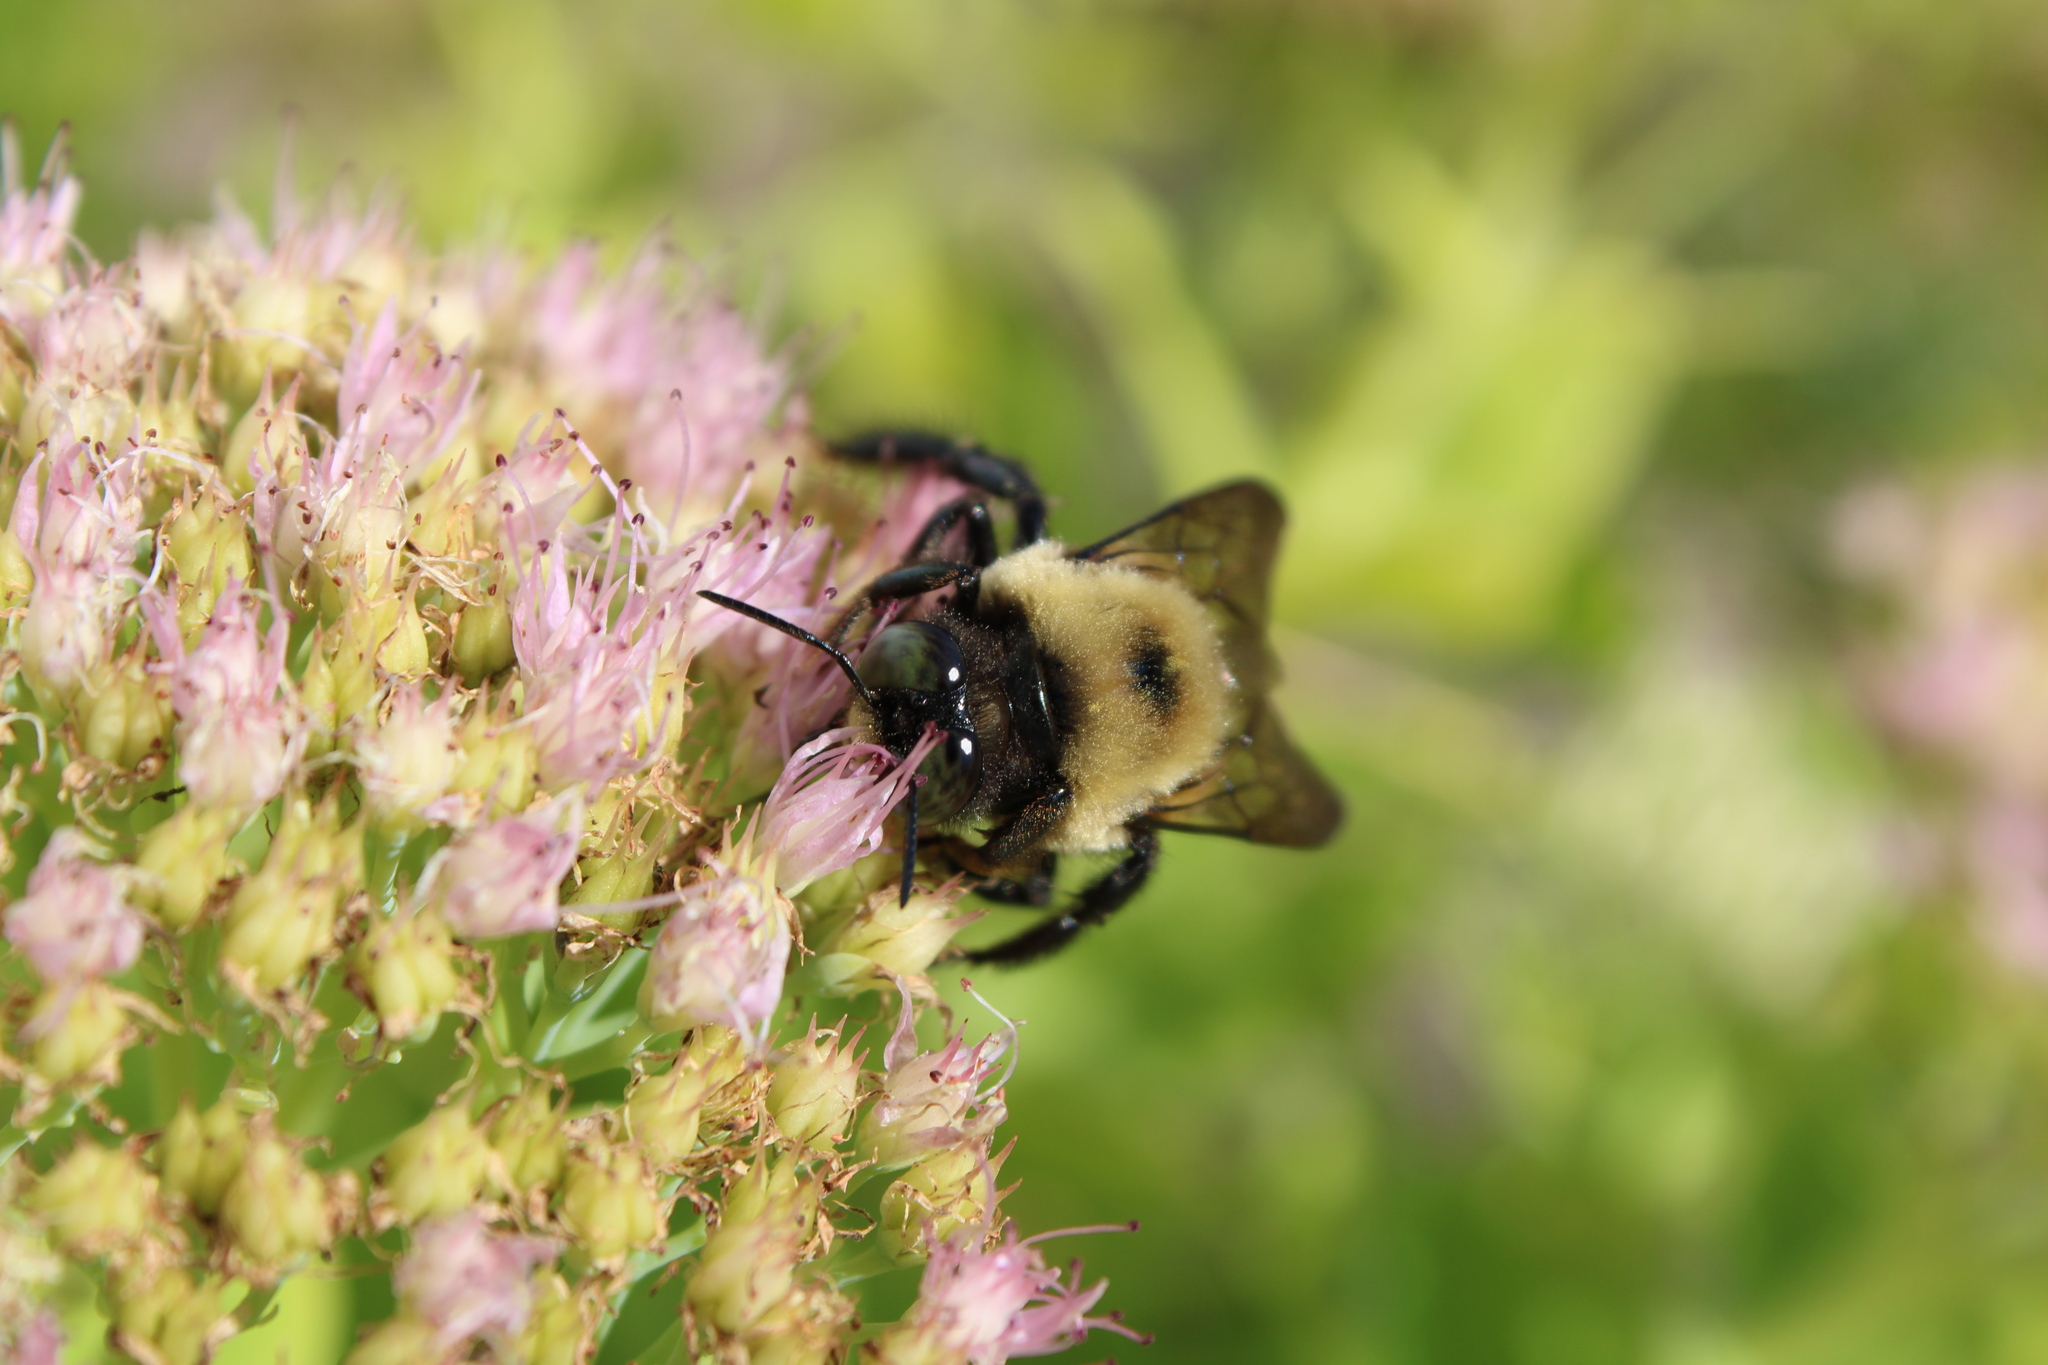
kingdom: Animalia
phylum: Arthropoda
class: Insecta
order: Hymenoptera
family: Apidae
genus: Xylocopa
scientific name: Xylocopa virginica
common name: Carpenter bee
